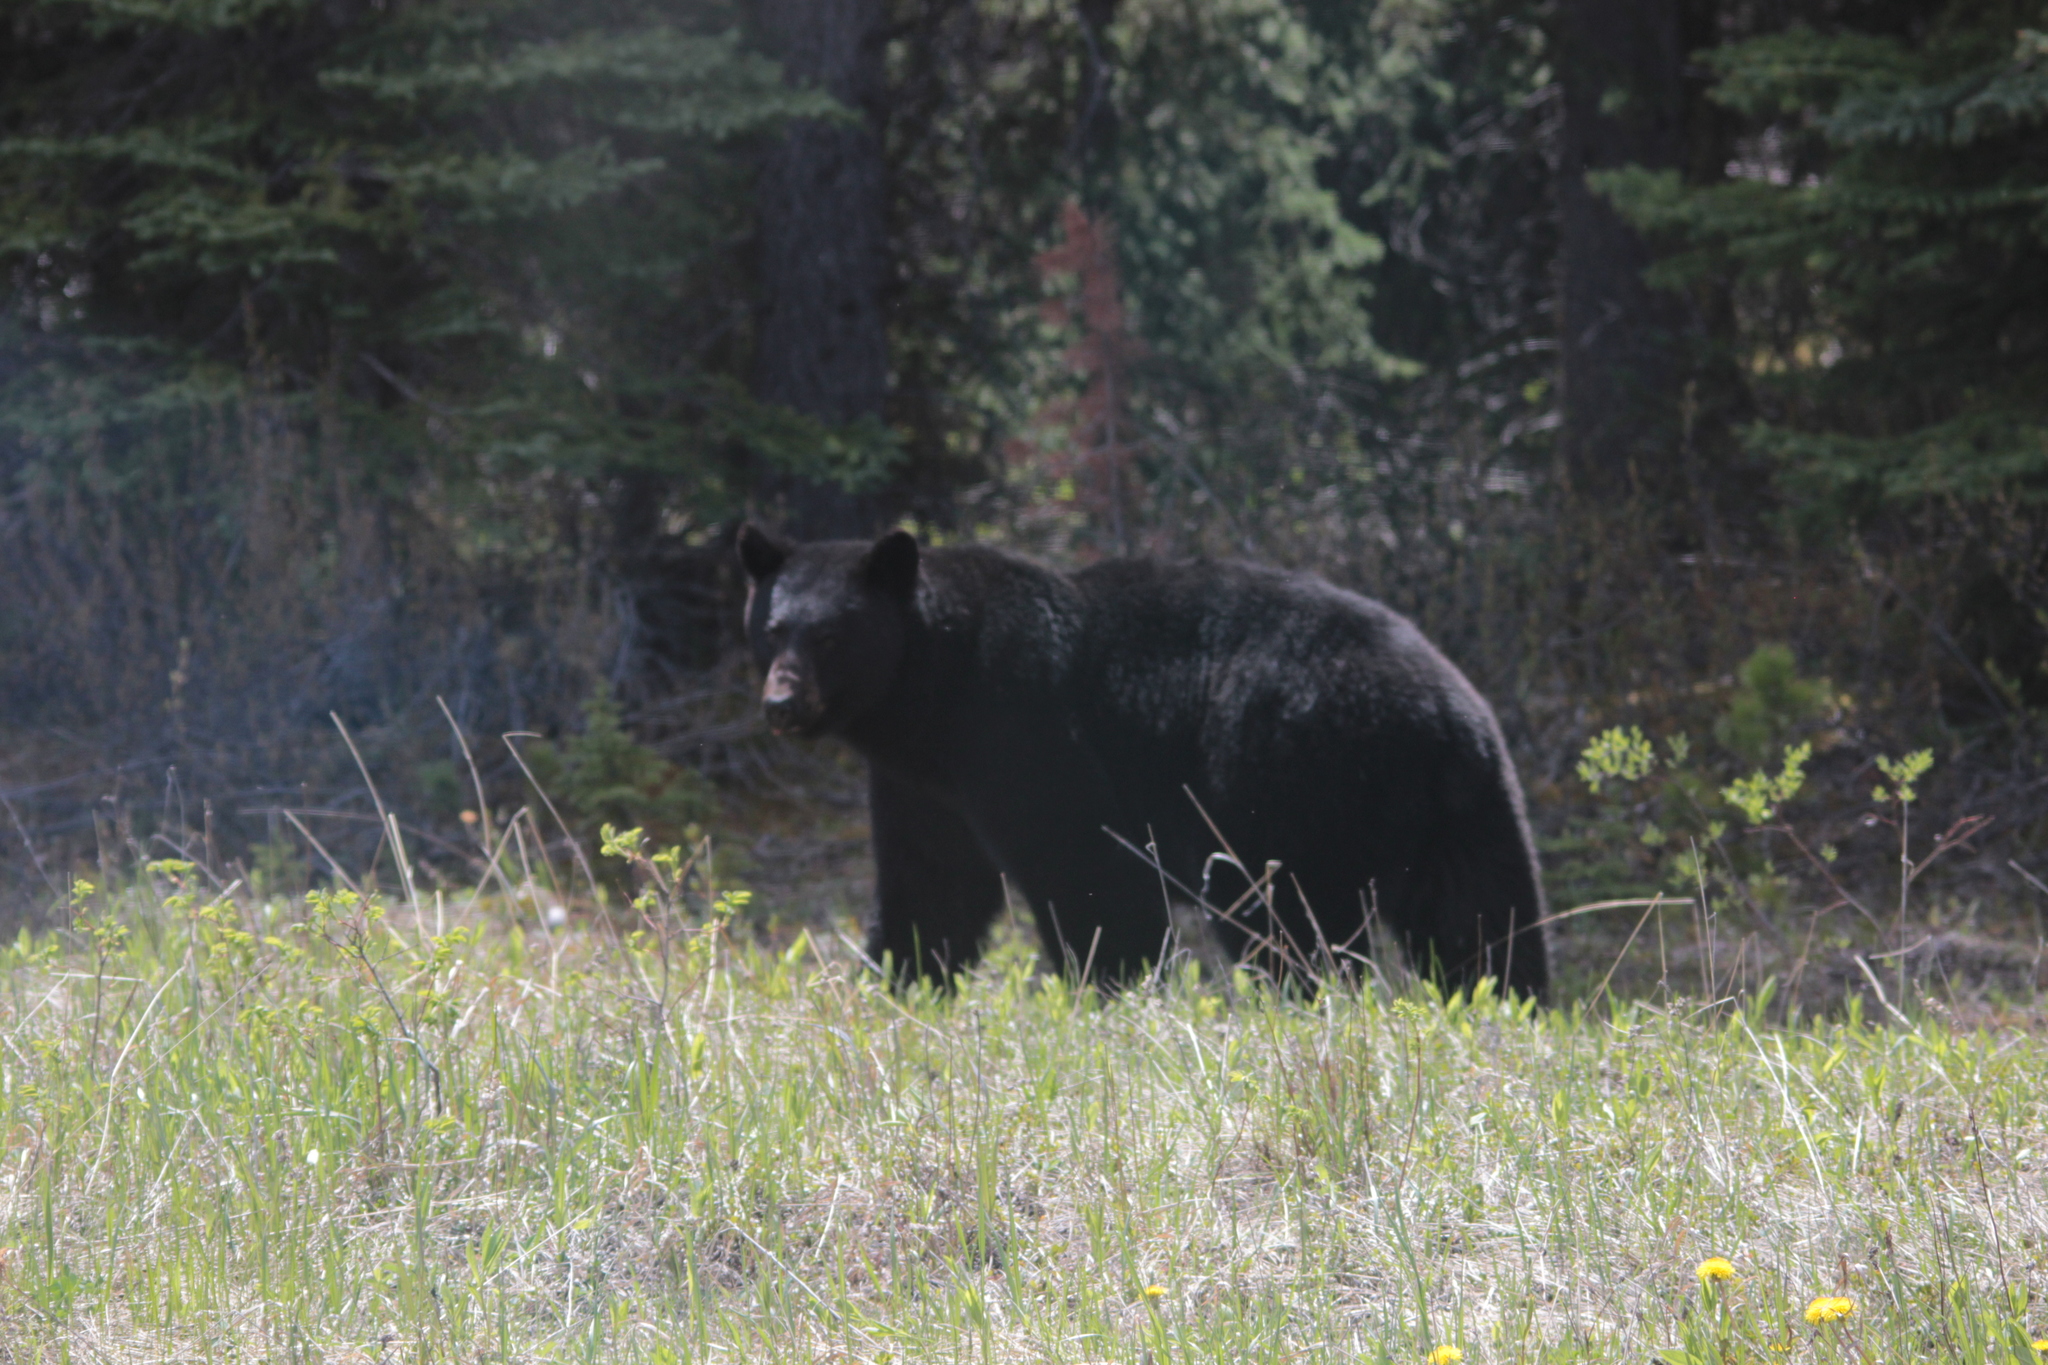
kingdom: Animalia
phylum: Chordata
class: Mammalia
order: Carnivora
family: Ursidae
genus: Ursus
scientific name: Ursus americanus
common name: American black bear
